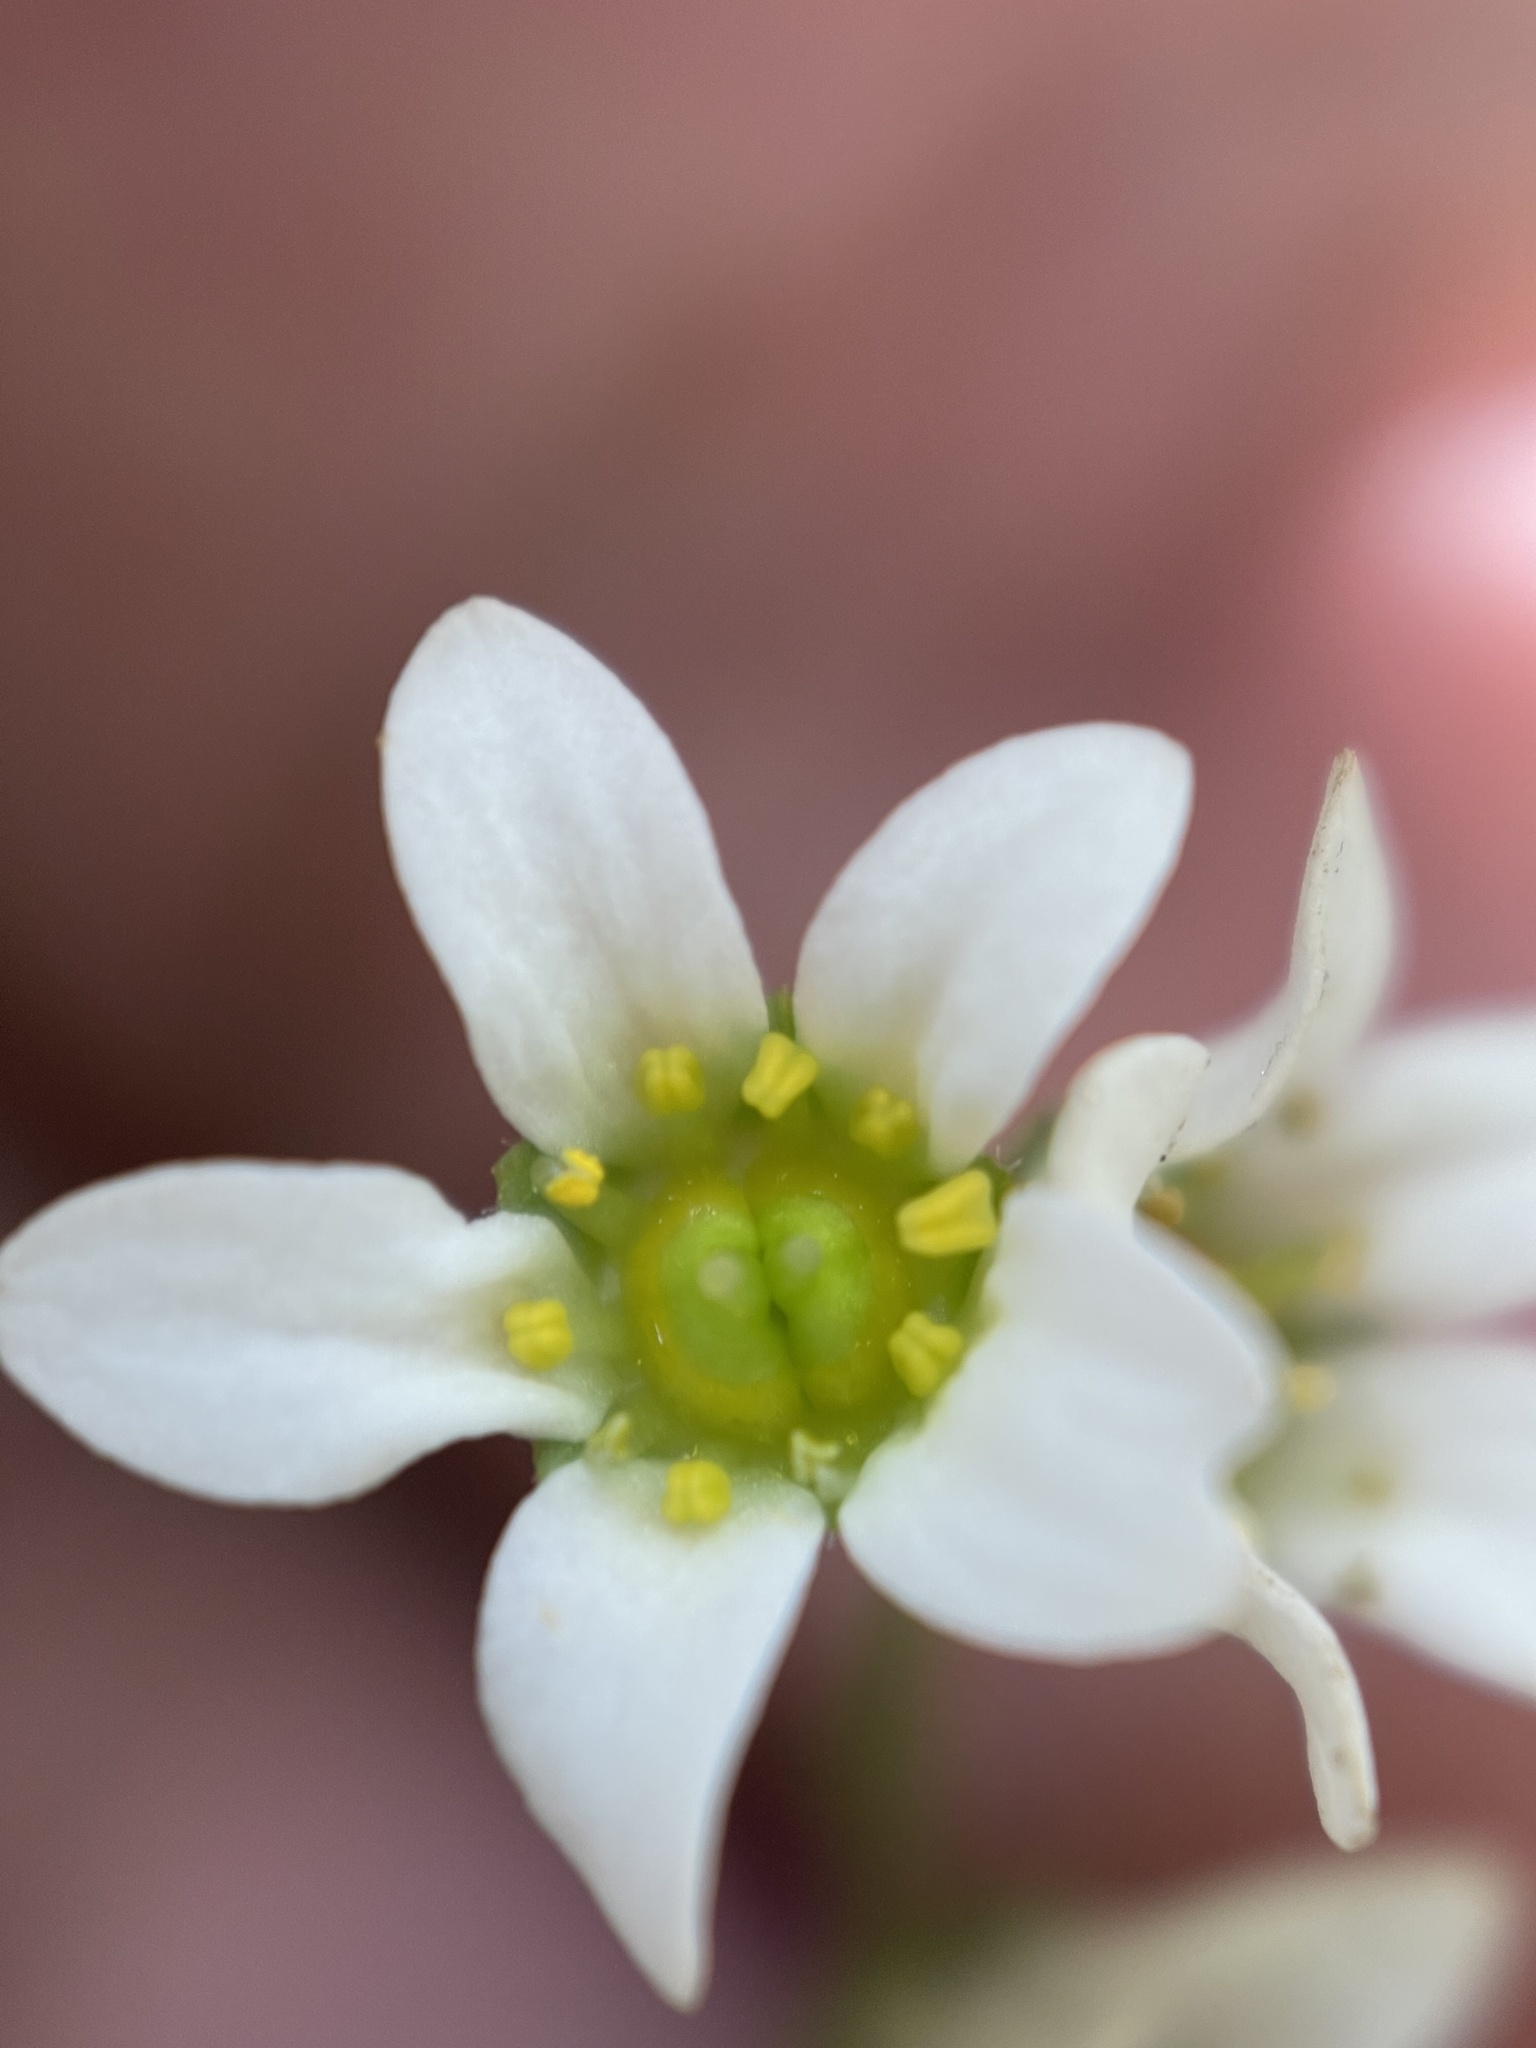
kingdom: Plantae
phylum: Tracheophyta
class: Magnoliopsida
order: Saxifragales
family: Saxifragaceae
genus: Micranthes
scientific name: Micranthes virginiensis
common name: Early saxifrage
